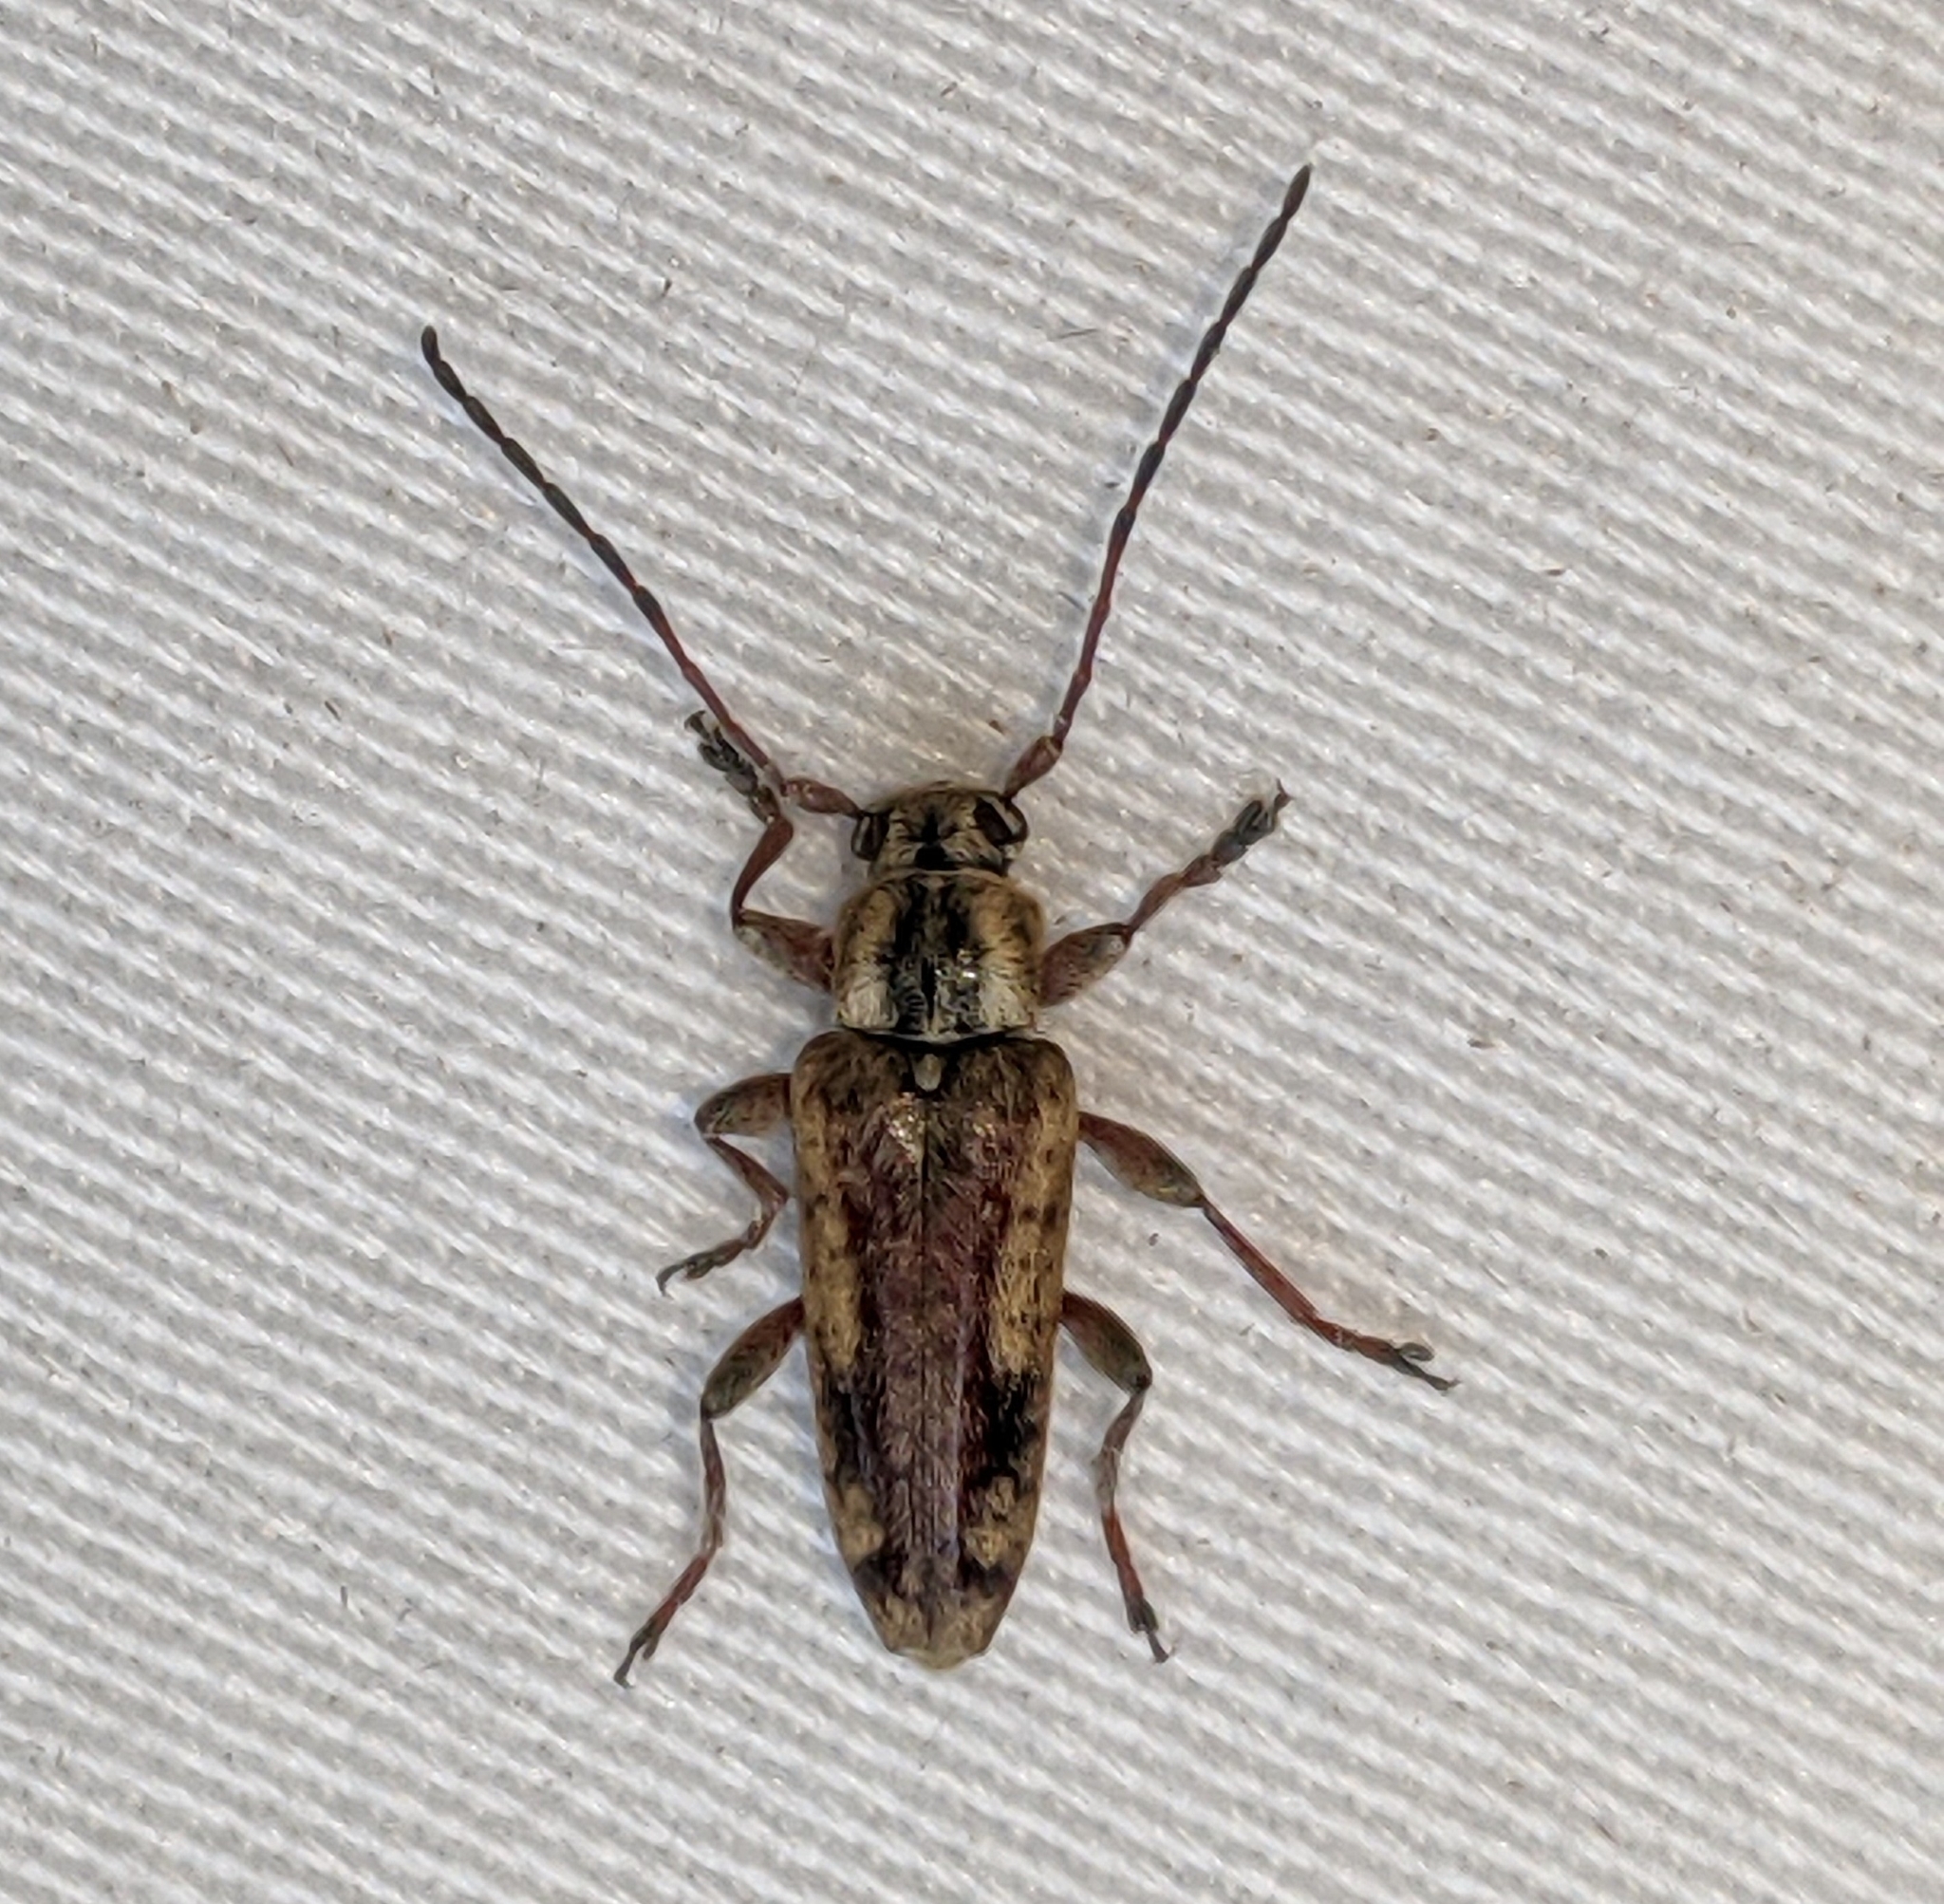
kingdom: Animalia
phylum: Arthropoda
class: Insecta
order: Coleoptera
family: Cerambycidae
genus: Atimia
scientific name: Atimia confusa
